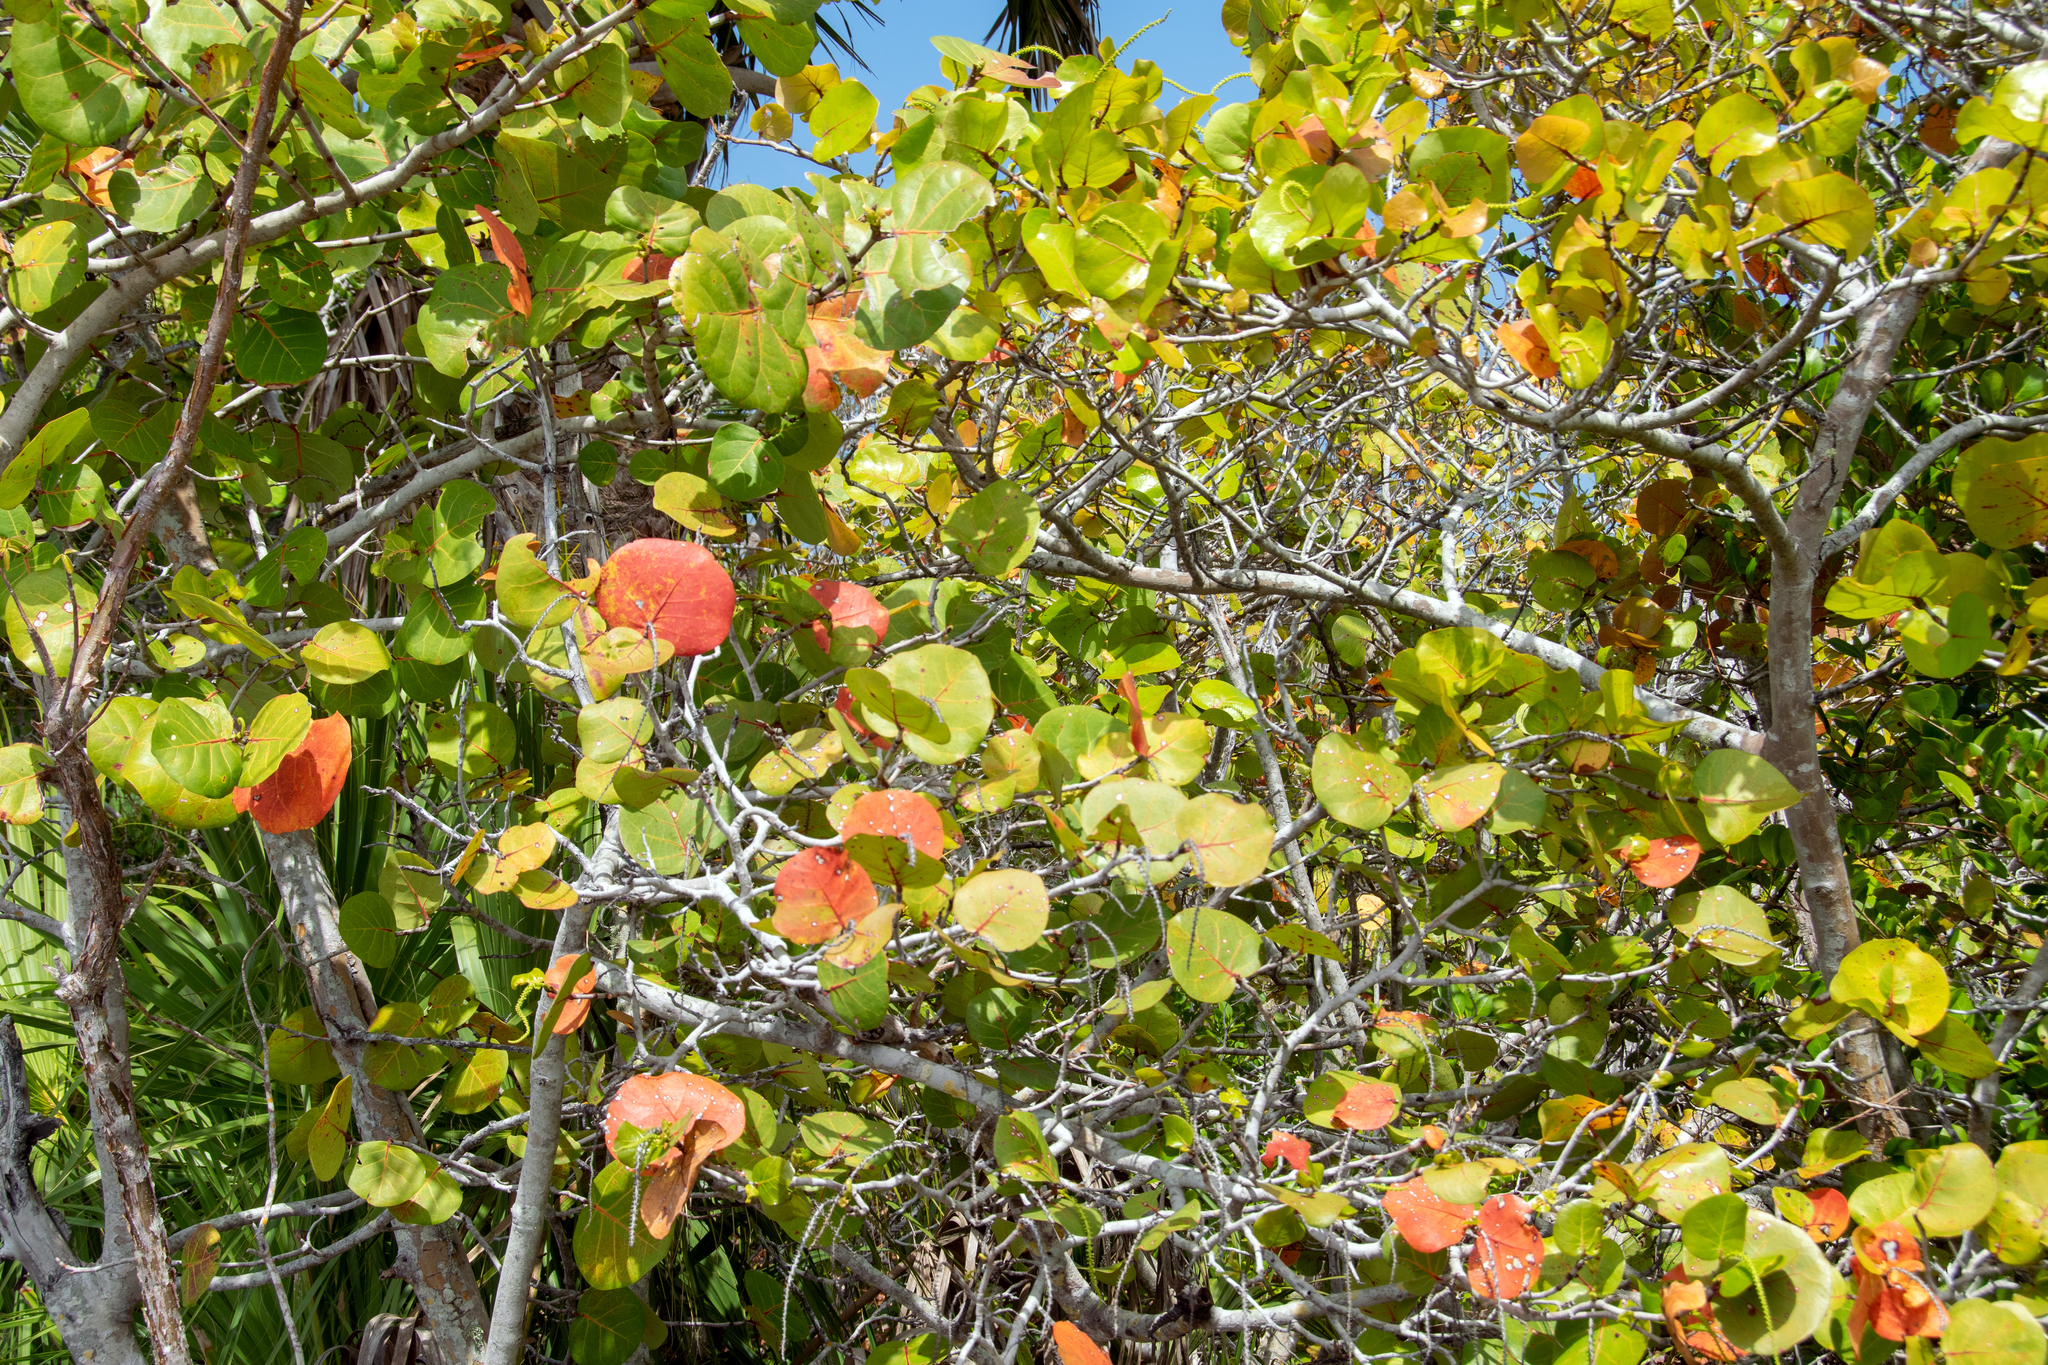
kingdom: Plantae
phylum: Tracheophyta
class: Magnoliopsida
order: Caryophyllales
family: Polygonaceae
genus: Coccoloba
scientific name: Coccoloba uvifera
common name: Seagrape
